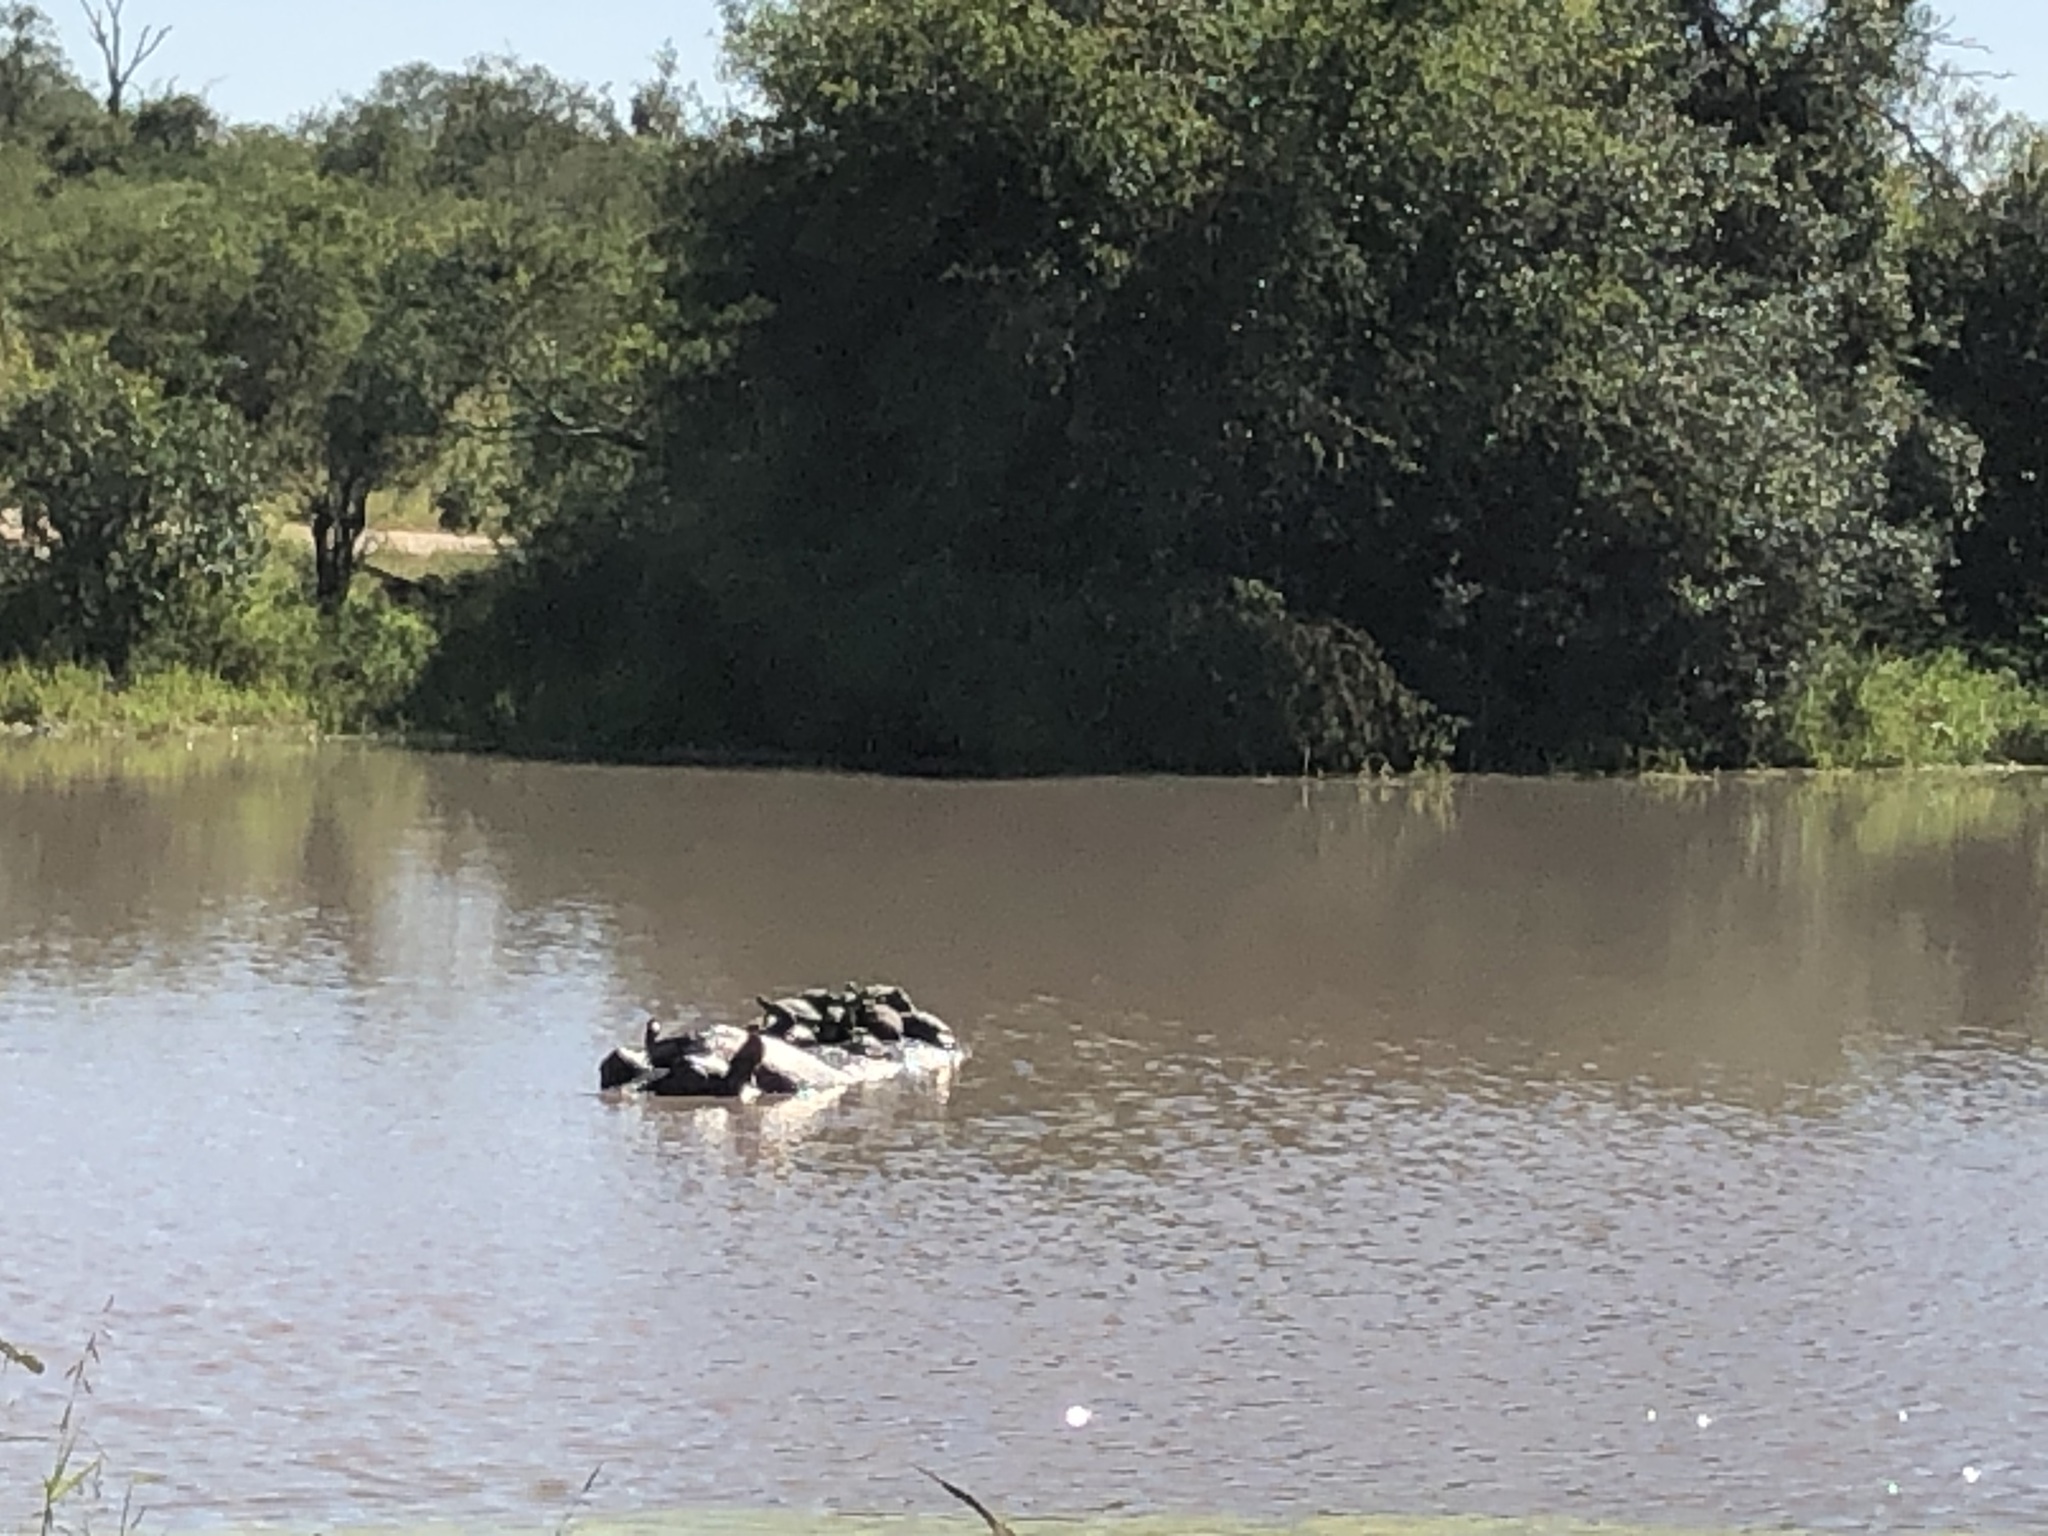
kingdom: Animalia
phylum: Chordata
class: Mammalia
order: Artiodactyla
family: Hippopotamidae
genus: Hippopotamus
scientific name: Hippopotamus amphibius
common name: Common hippopotamus
